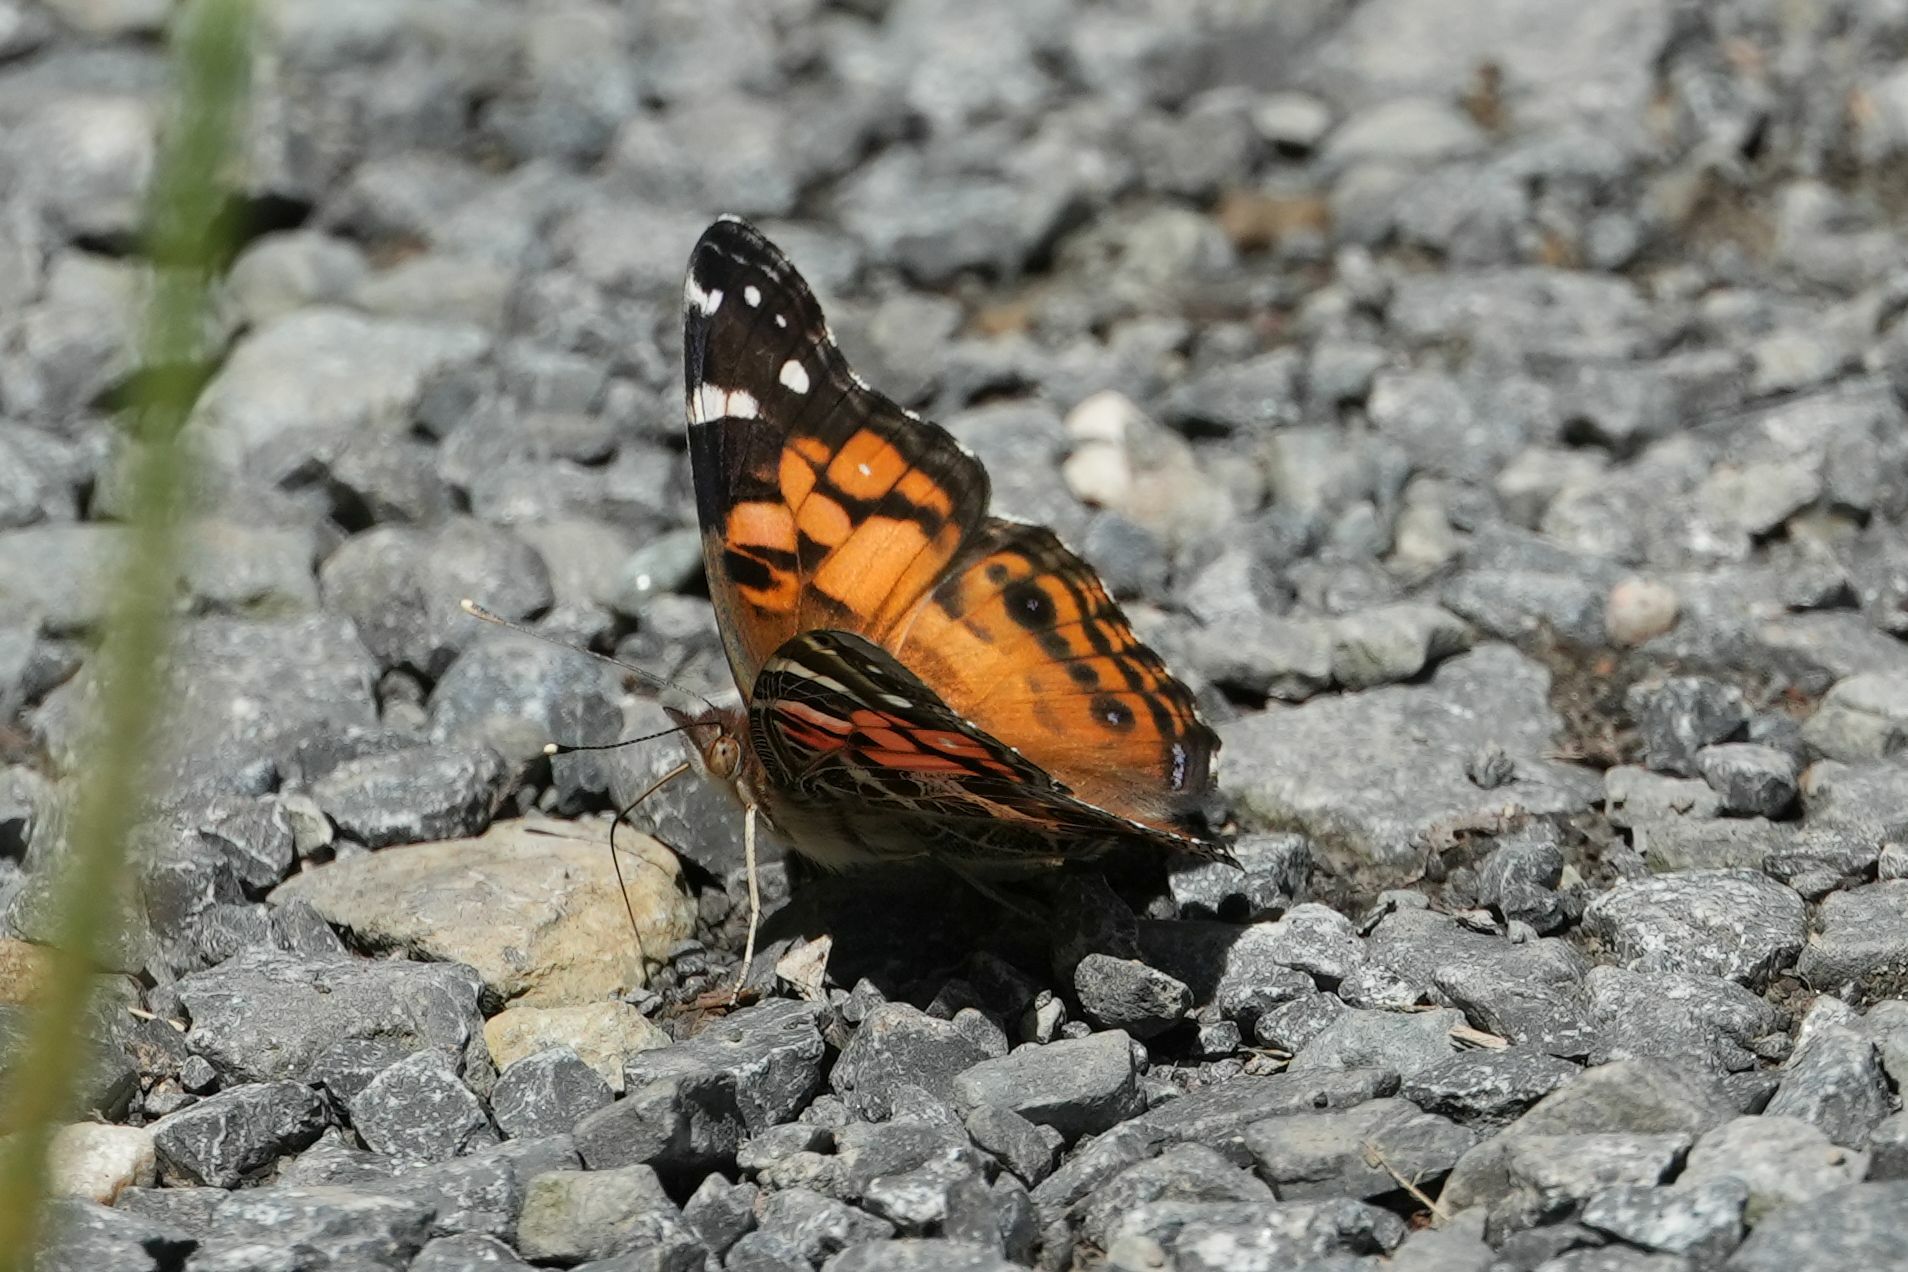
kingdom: Animalia
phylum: Arthropoda
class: Insecta
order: Lepidoptera
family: Nymphalidae
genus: Vanessa
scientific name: Vanessa virginiensis
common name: American lady
